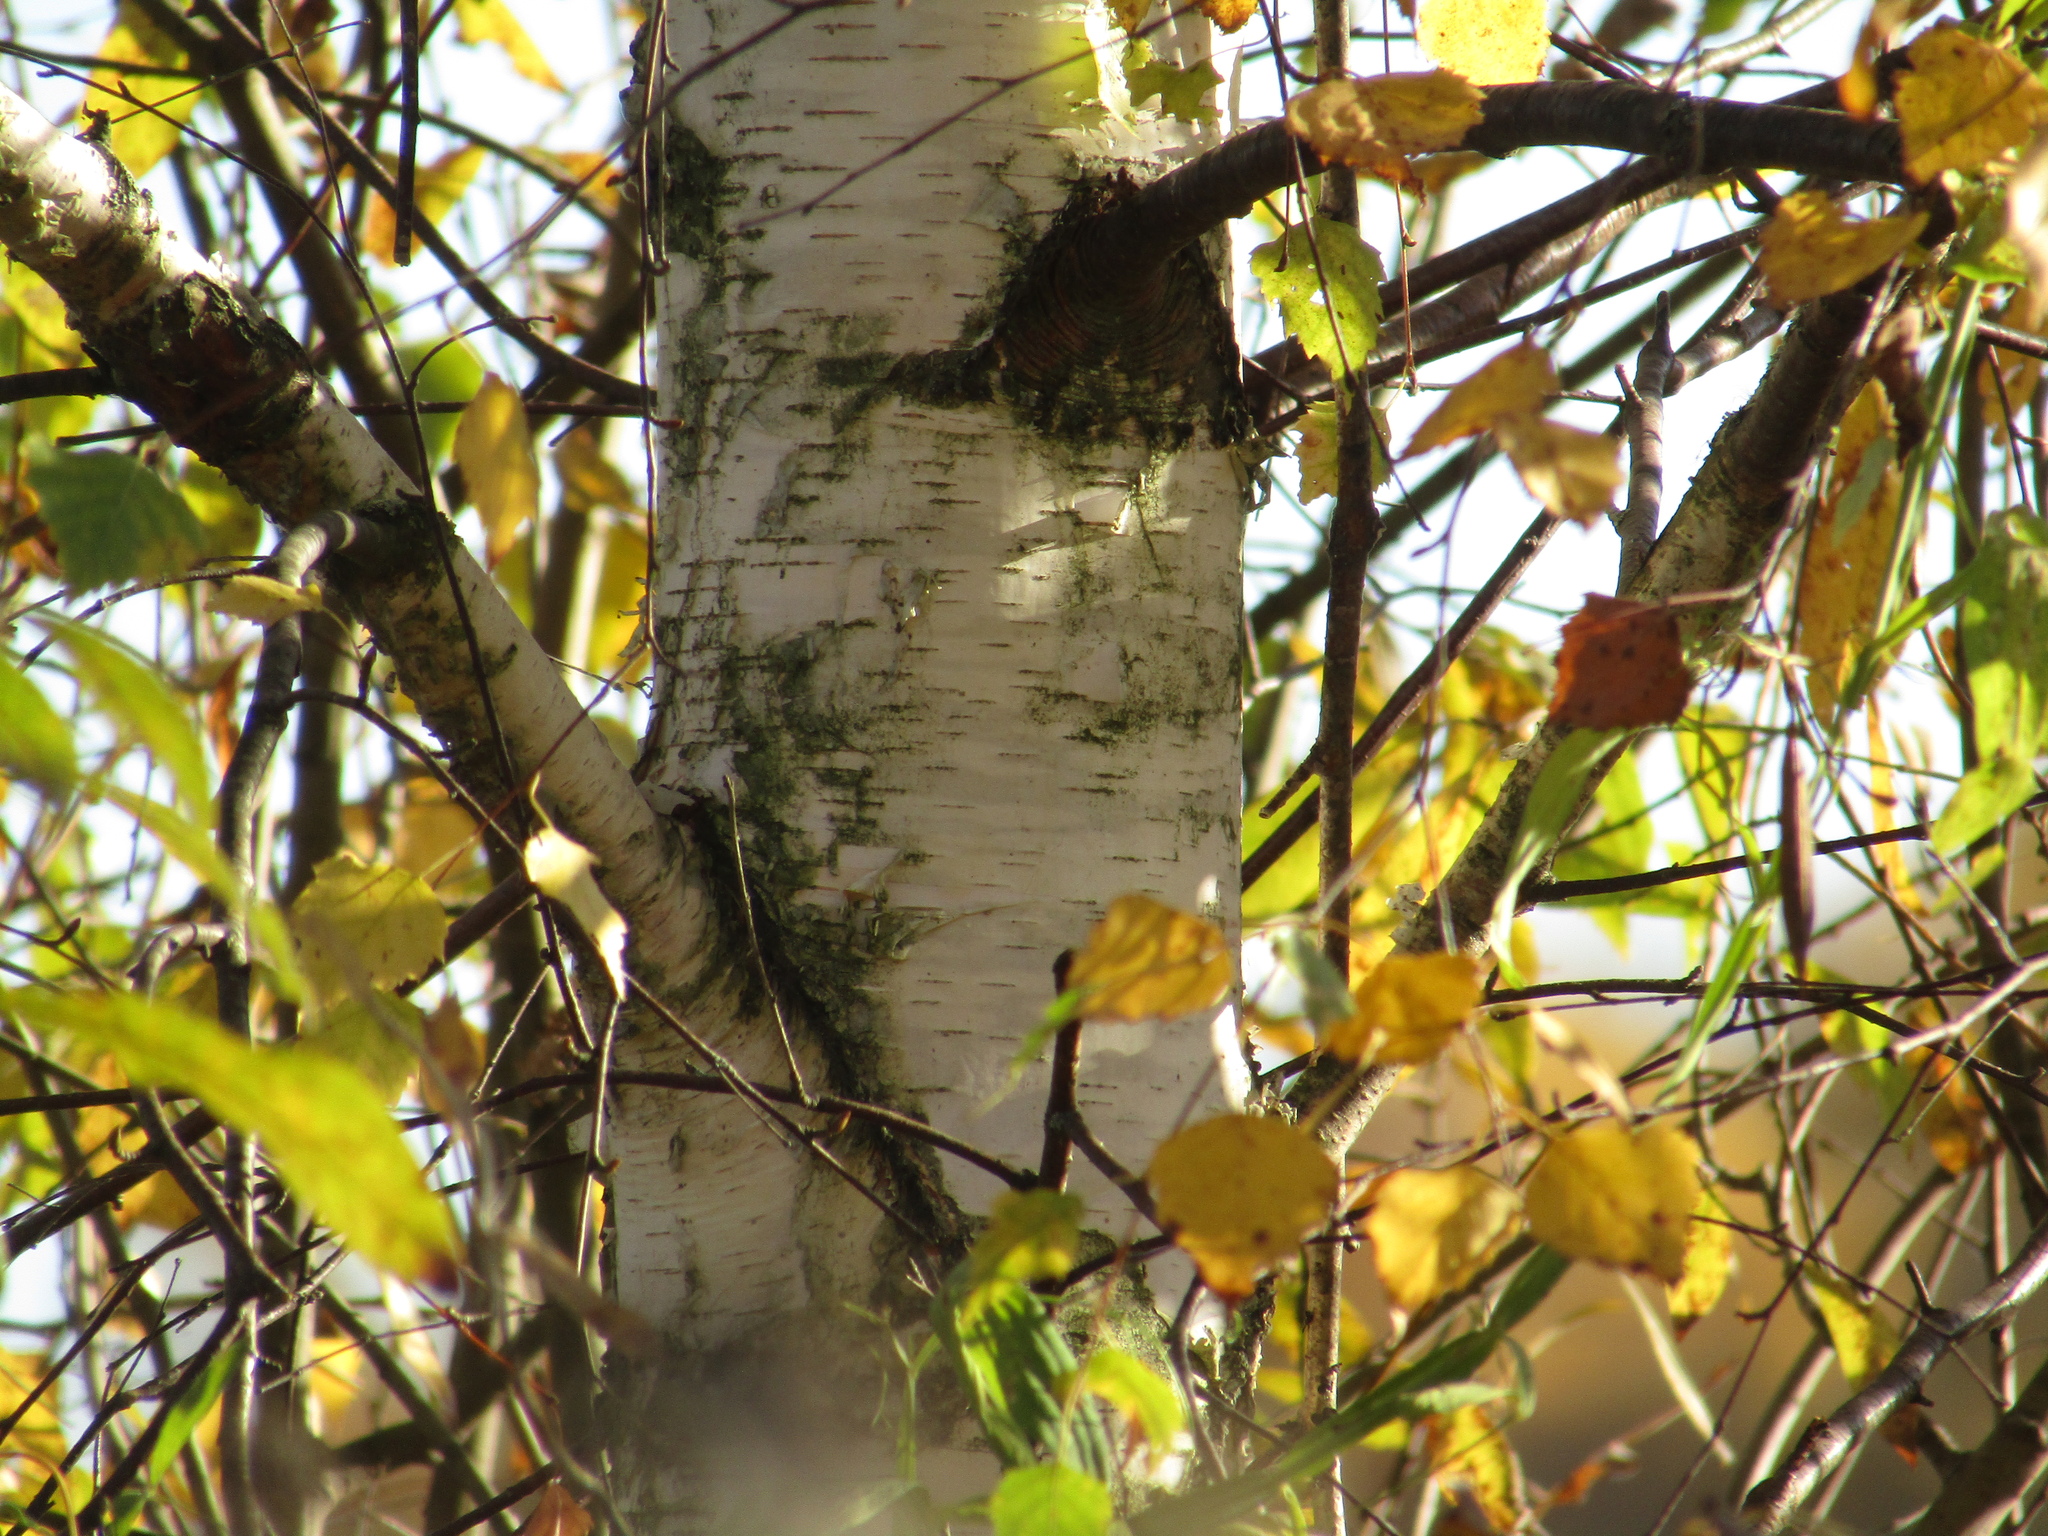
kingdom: Plantae
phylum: Tracheophyta
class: Magnoliopsida
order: Fagales
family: Betulaceae
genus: Betula
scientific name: Betula pendula
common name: Silver birch
